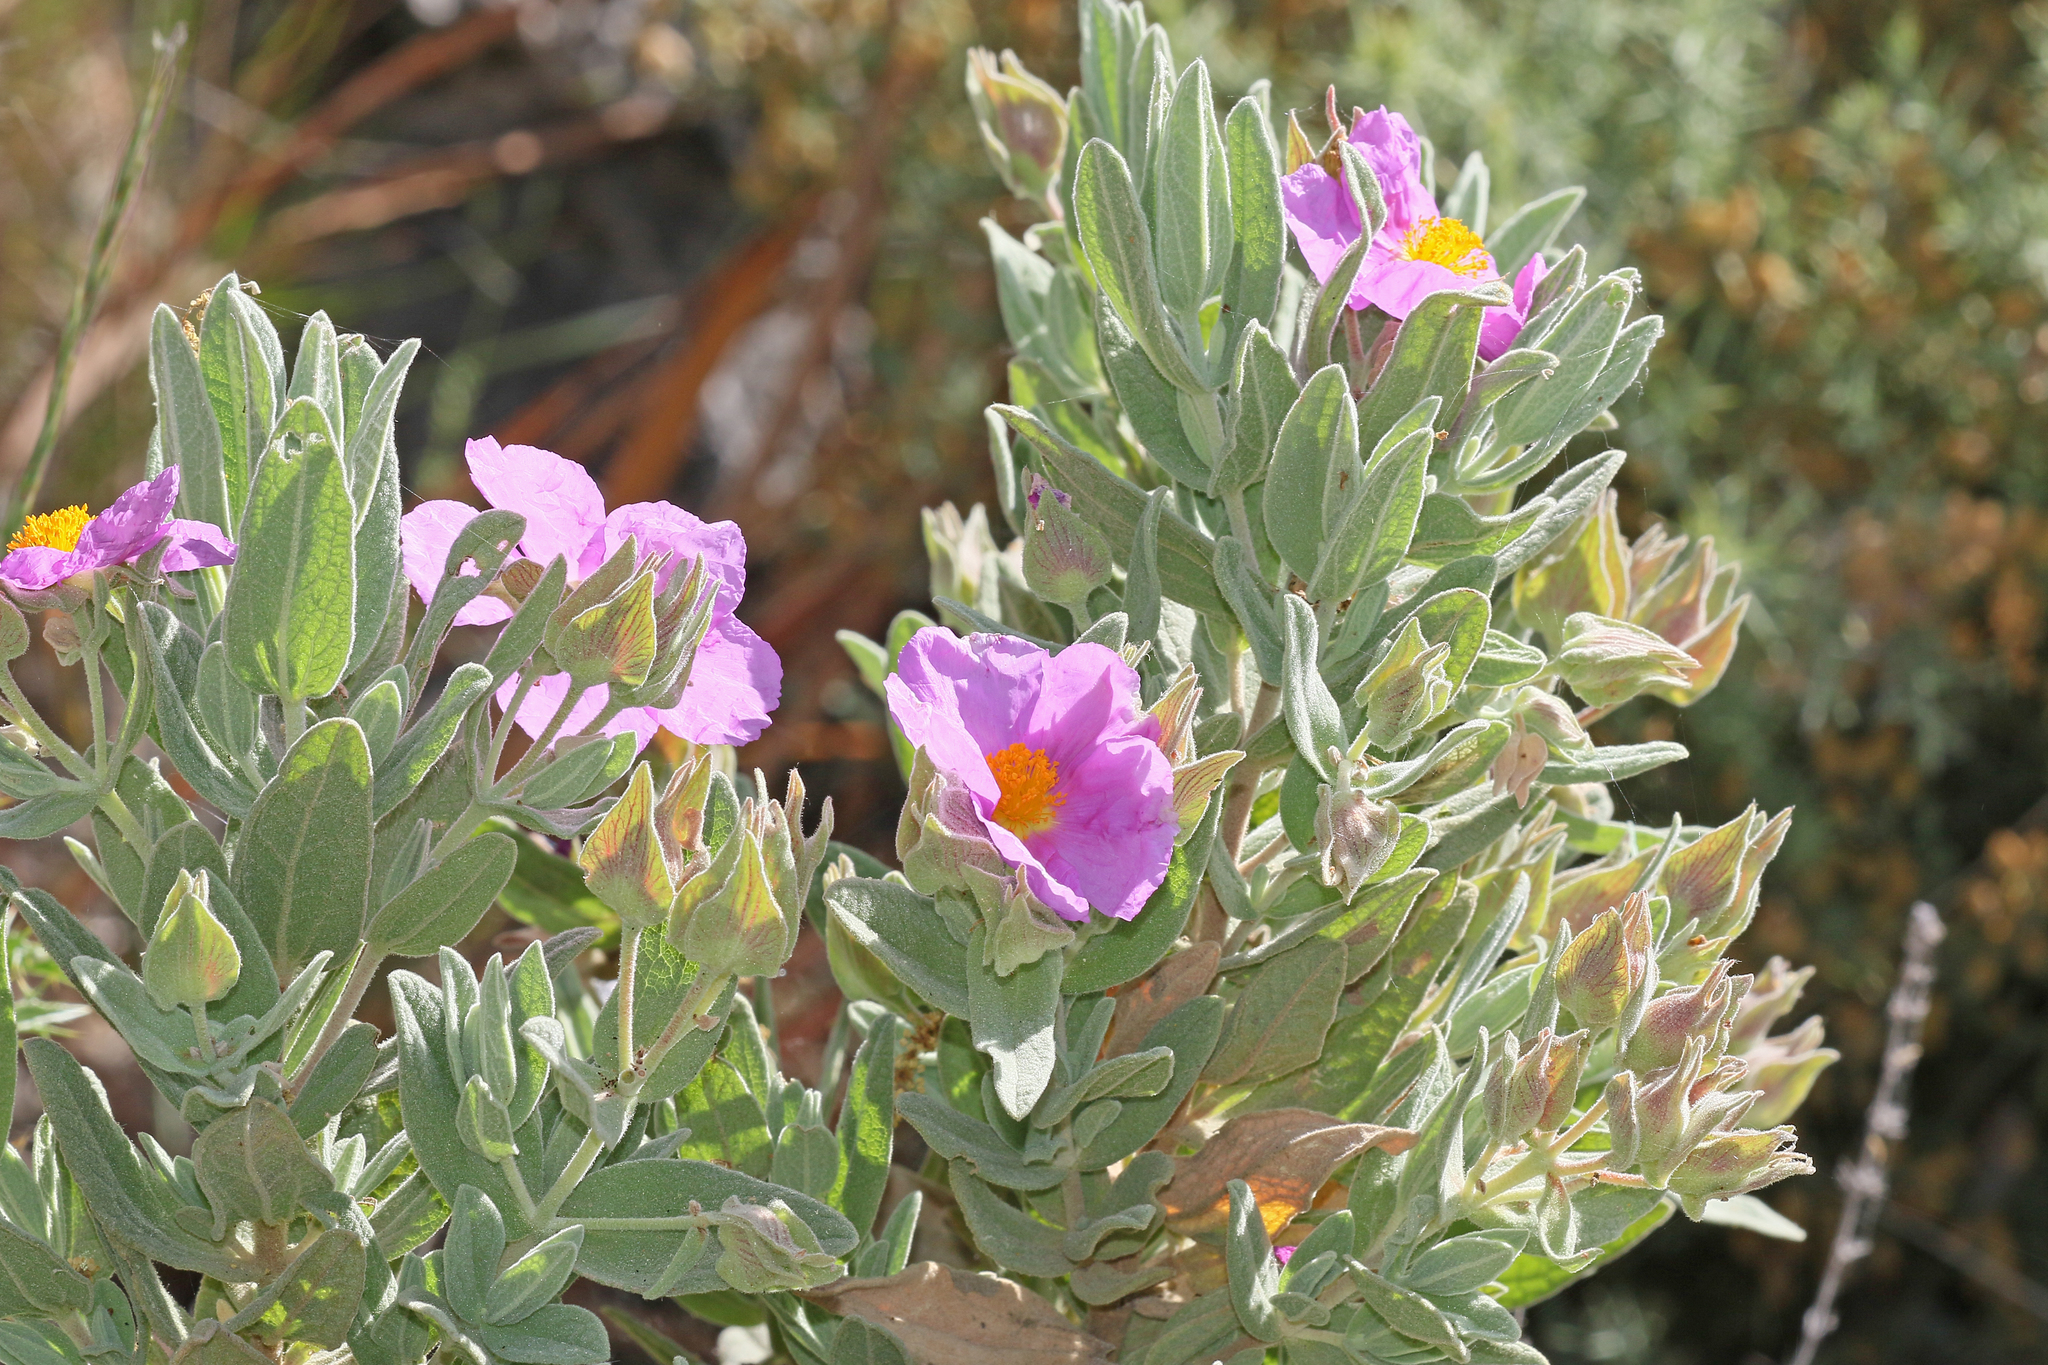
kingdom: Plantae
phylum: Tracheophyta
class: Magnoliopsida
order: Malvales
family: Cistaceae
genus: Cistus
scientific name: Cistus albidus
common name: White-leaf rock-rose
